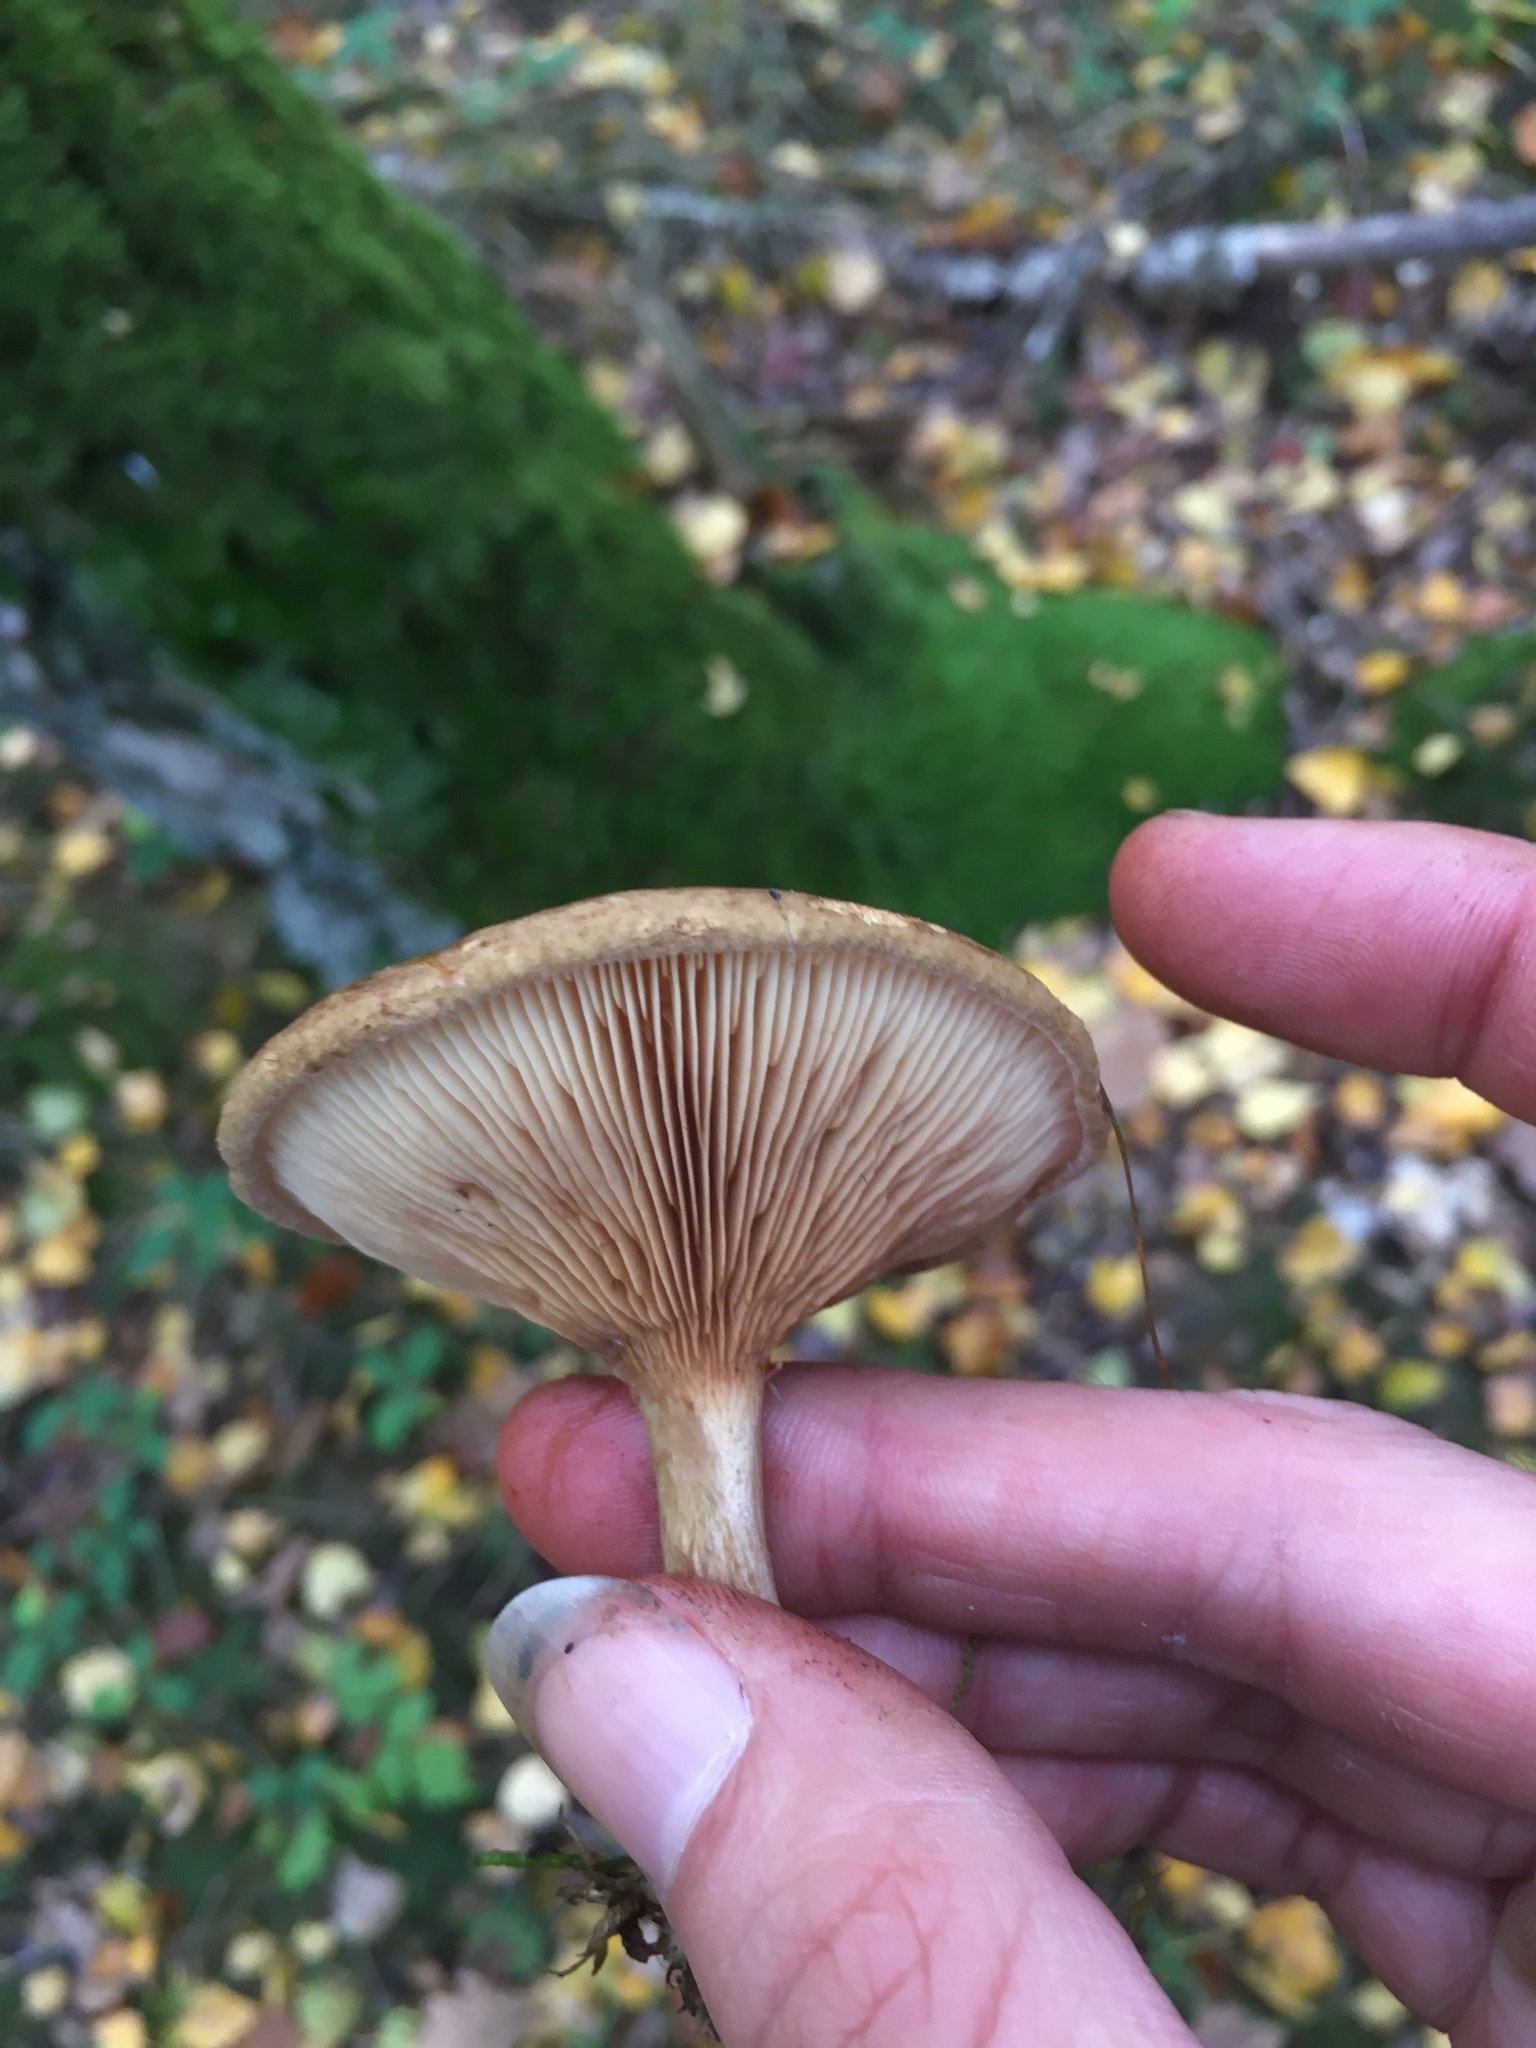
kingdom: Fungi
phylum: Basidiomycota
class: Agaricomycetes
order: Boletales
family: Paxillaceae
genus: Paxillus
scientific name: Paxillus involutus
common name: Brown roll rim
